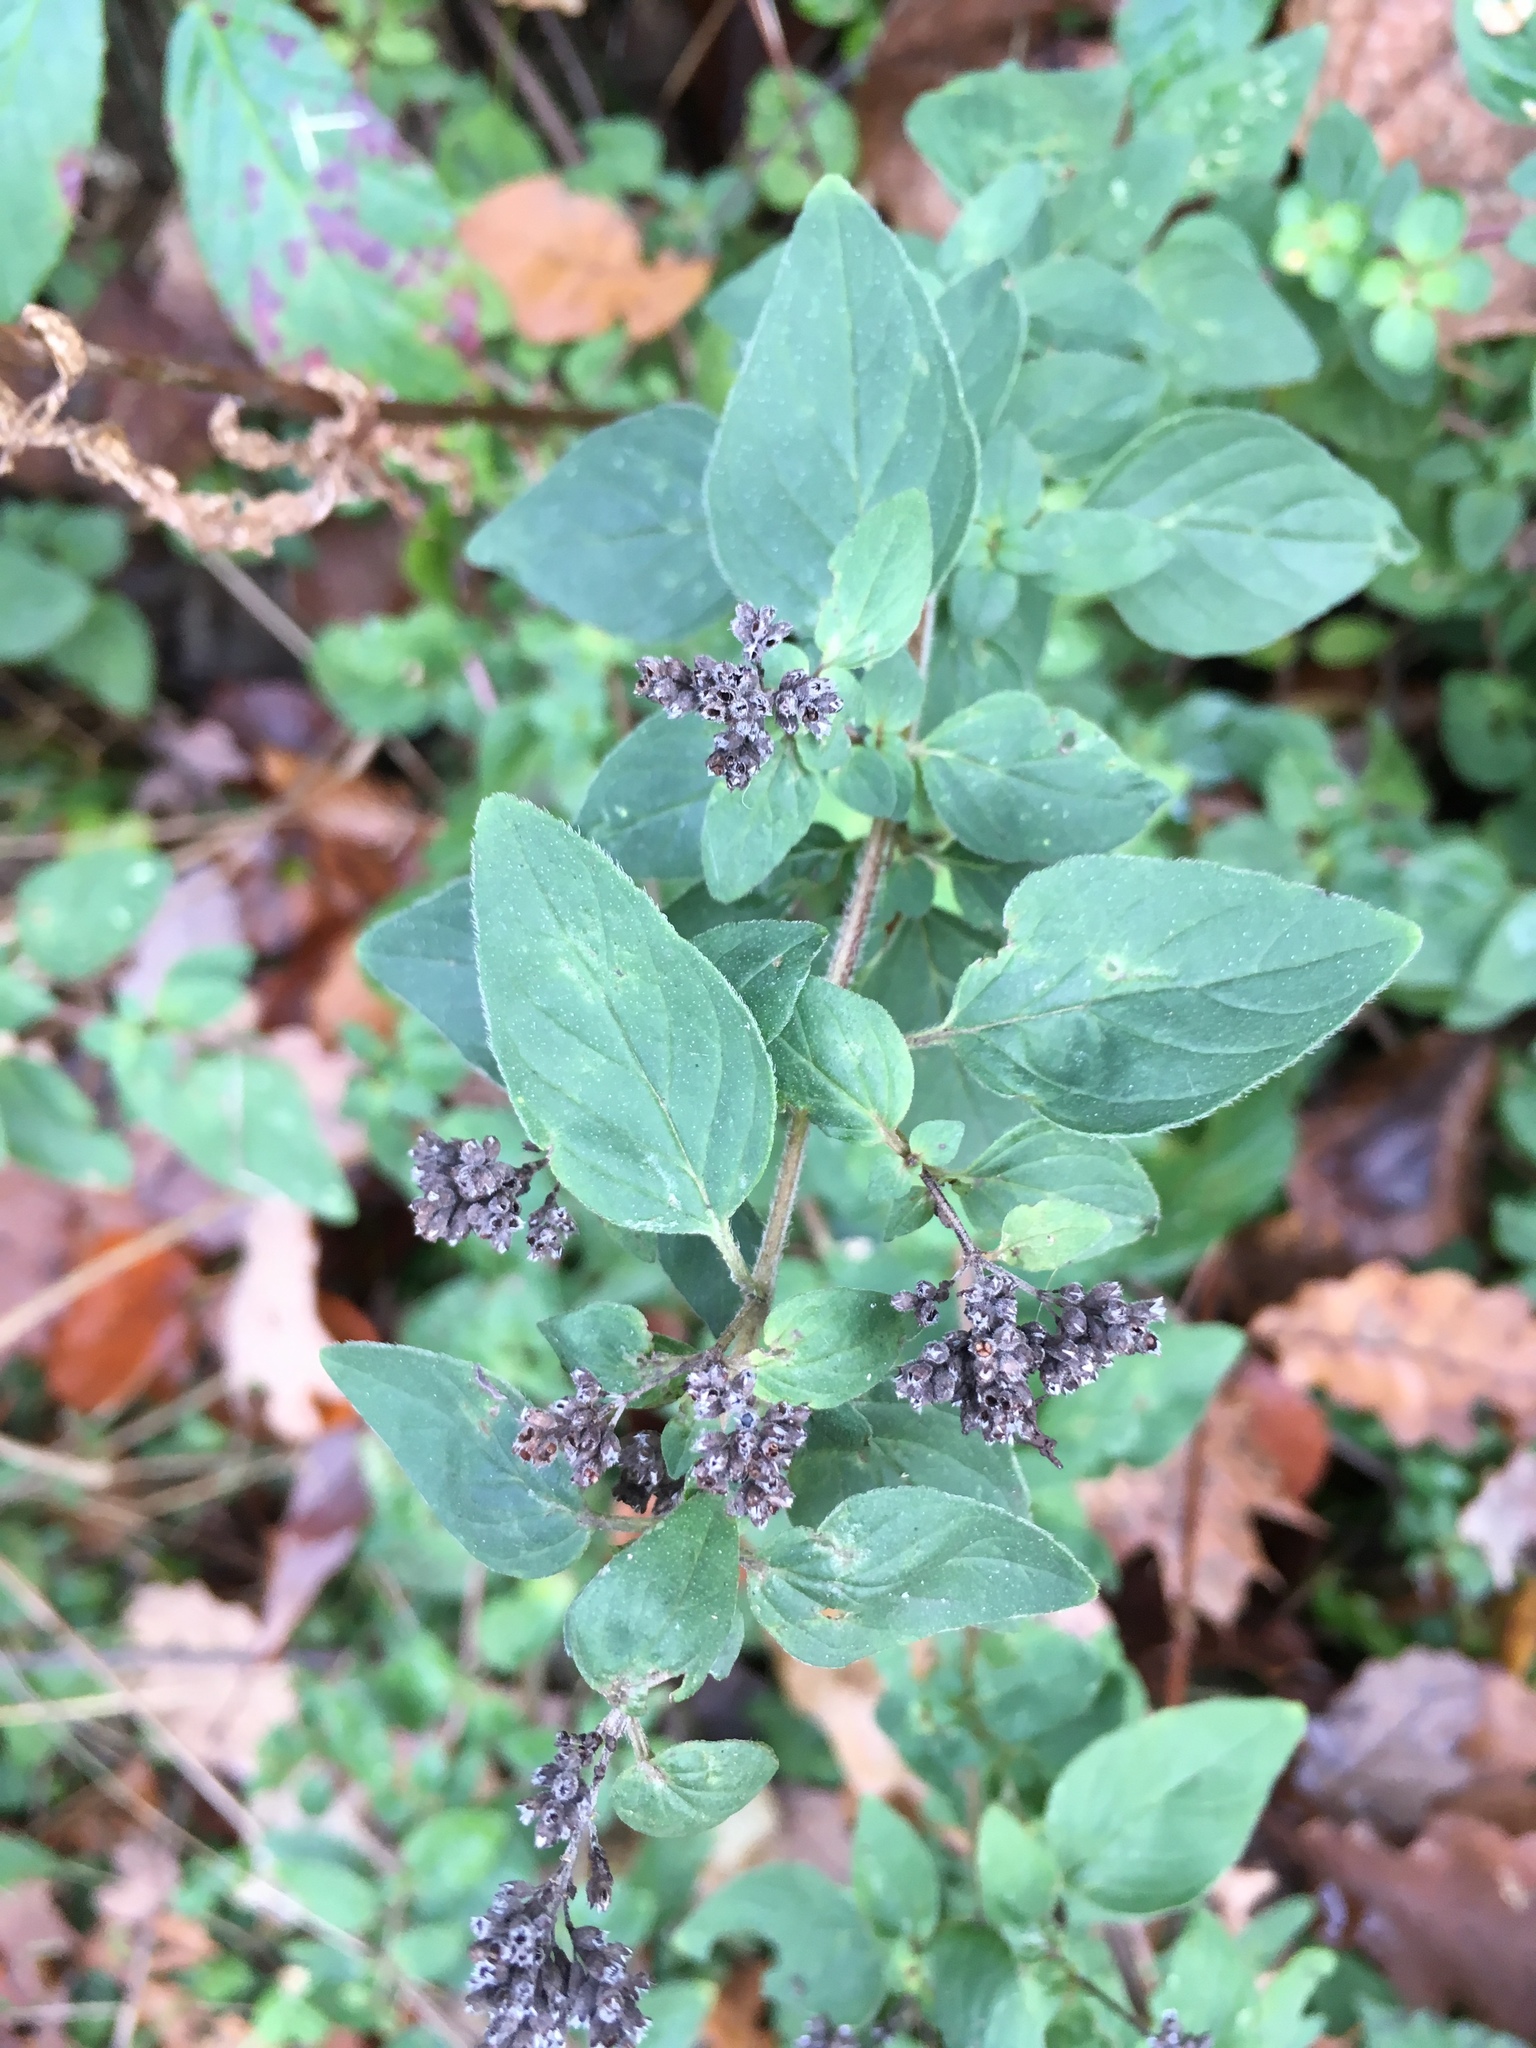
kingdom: Plantae
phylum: Tracheophyta
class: Magnoliopsida
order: Lamiales
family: Lamiaceae
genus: Origanum
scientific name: Origanum vulgare
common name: Wild marjoram
